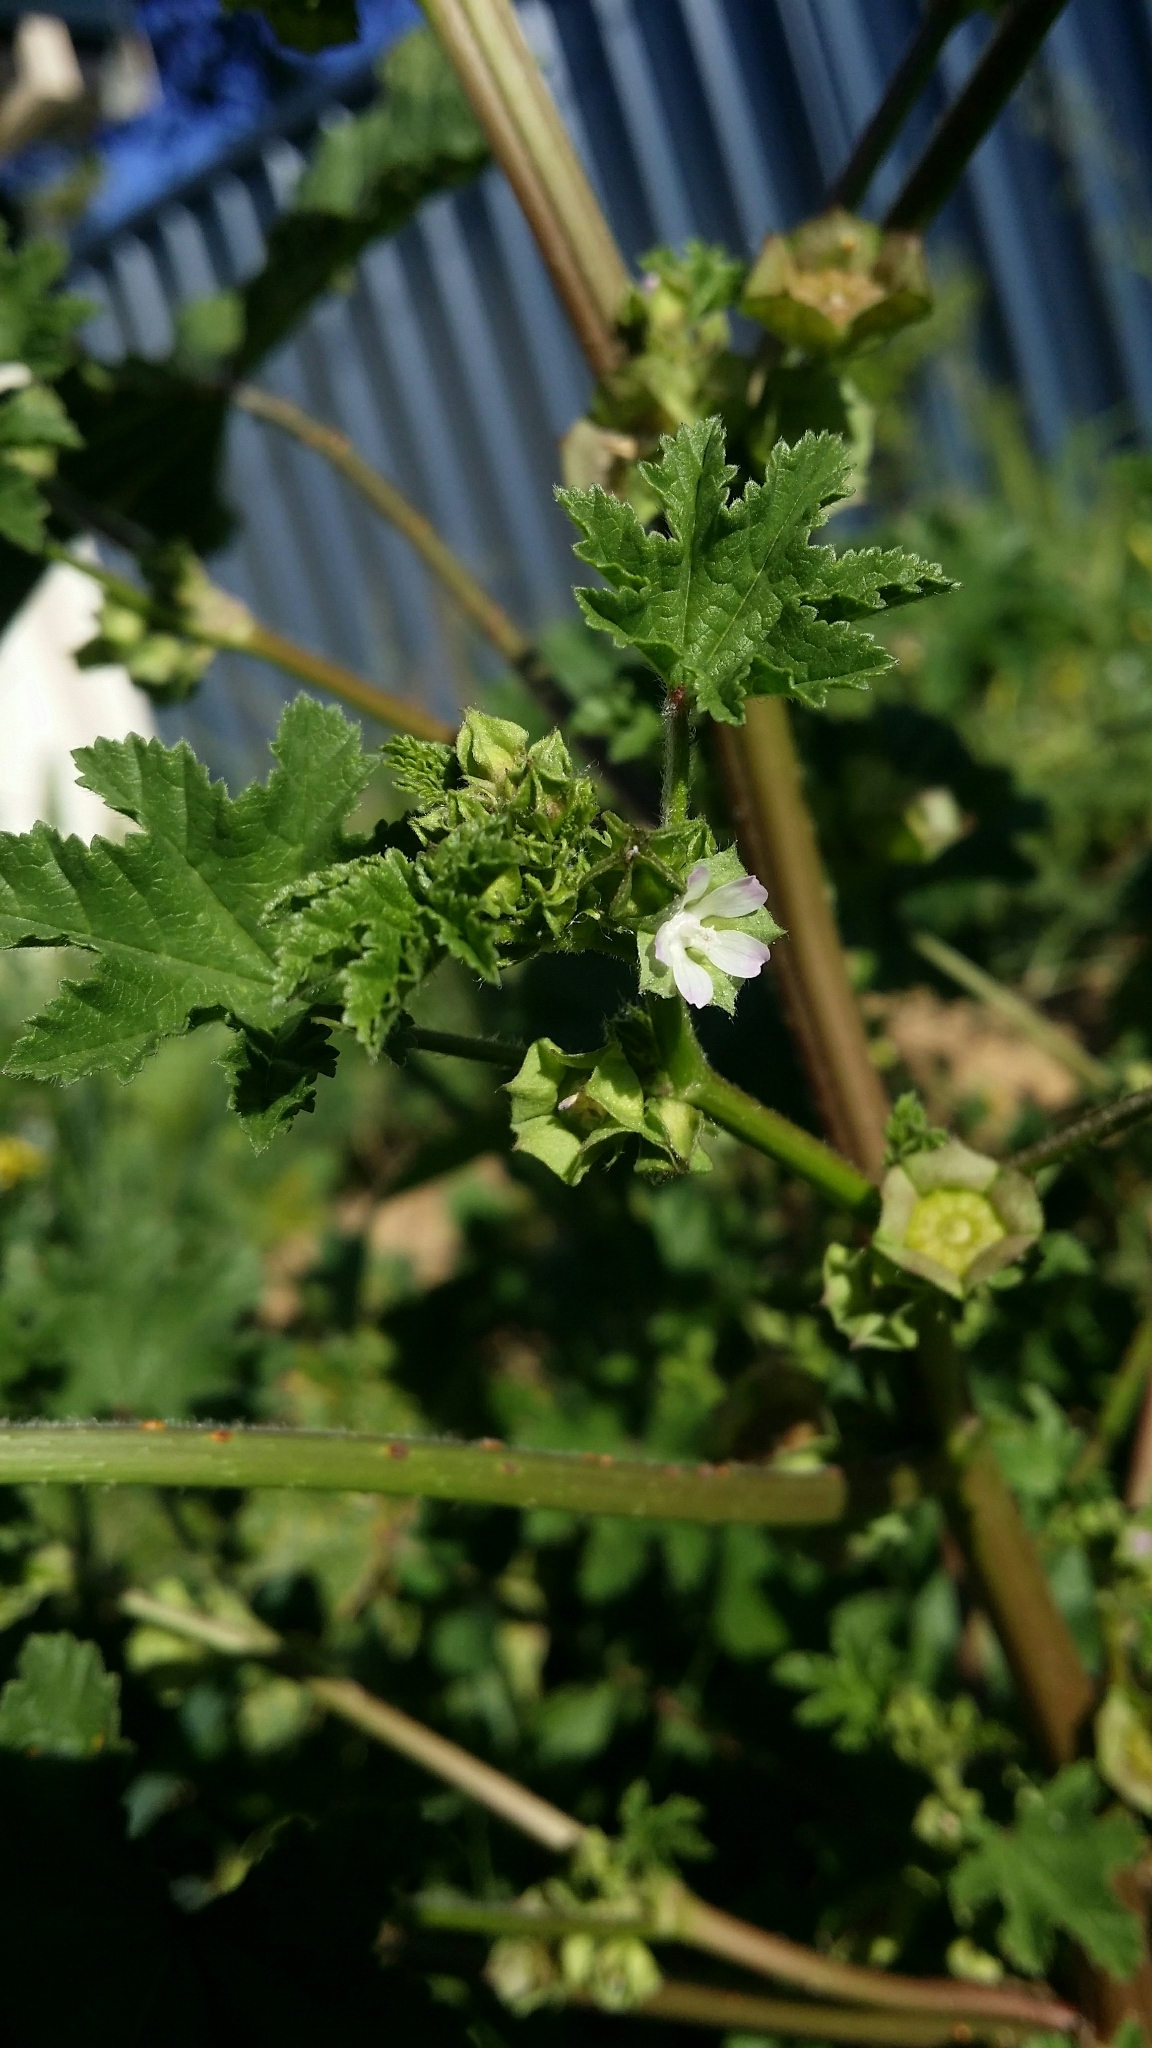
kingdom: Plantae
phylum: Tracheophyta
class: Magnoliopsida
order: Malvales
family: Malvaceae
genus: Malva
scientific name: Malva parviflora
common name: Least mallow
